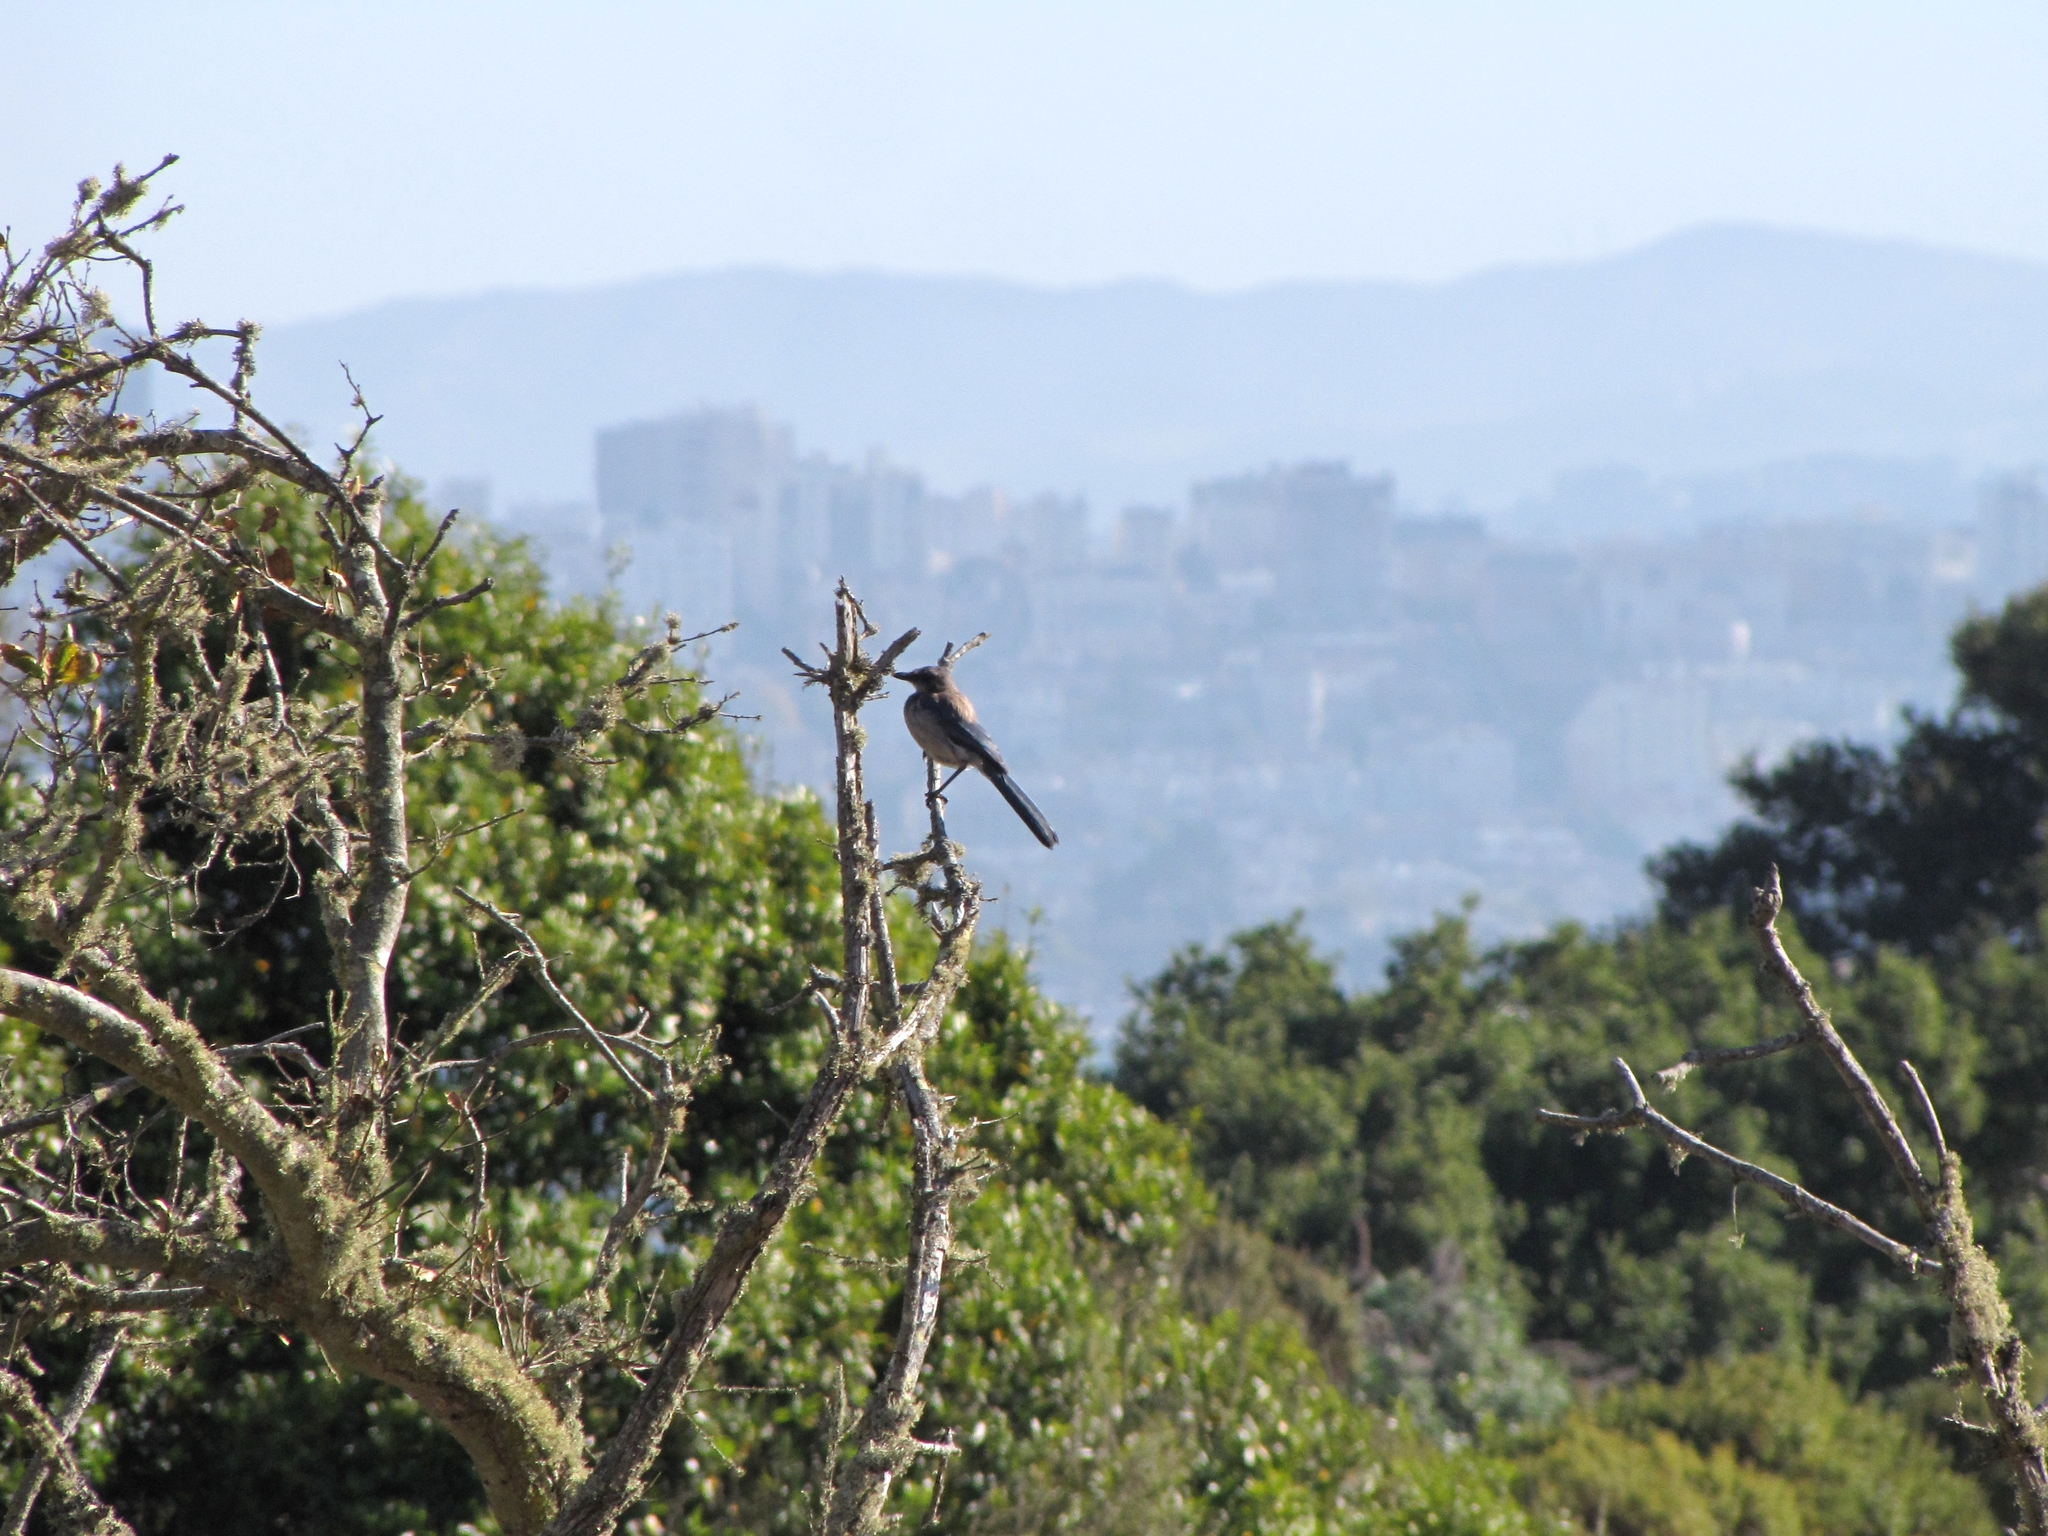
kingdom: Animalia
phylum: Chordata
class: Aves
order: Passeriformes
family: Corvidae
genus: Aphelocoma
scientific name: Aphelocoma californica
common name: California scrub-jay
